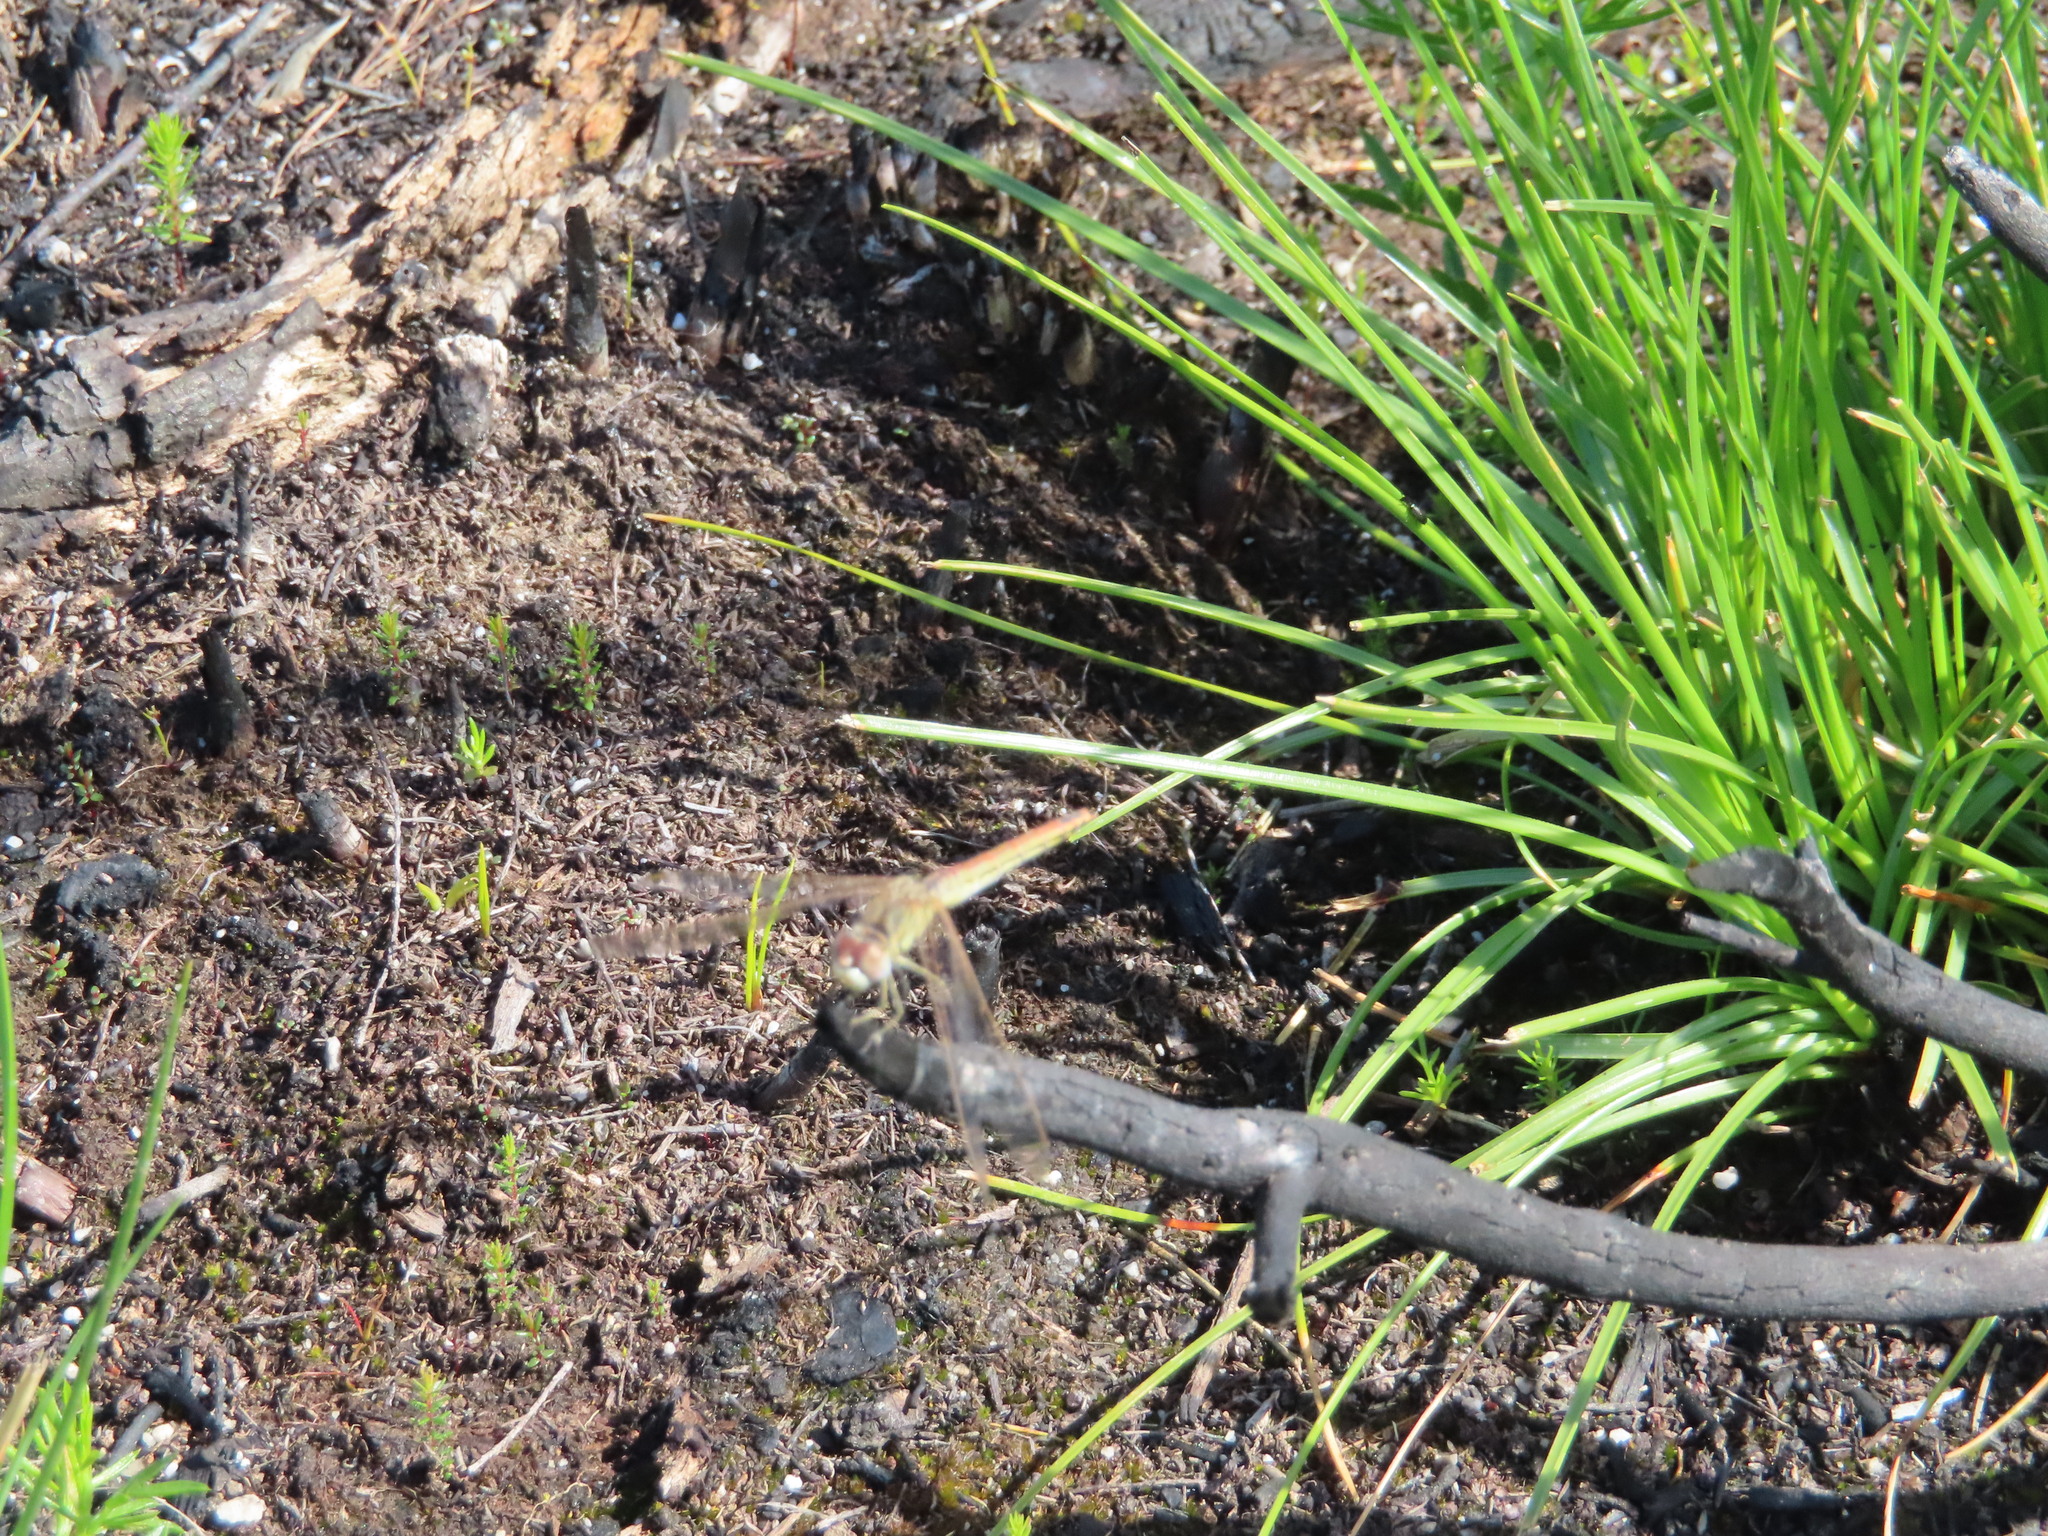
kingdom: Animalia
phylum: Arthropoda
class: Insecta
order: Odonata
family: Libellulidae
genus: Sympetrum
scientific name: Sympetrum fonscolombii
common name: Red-veined darter
